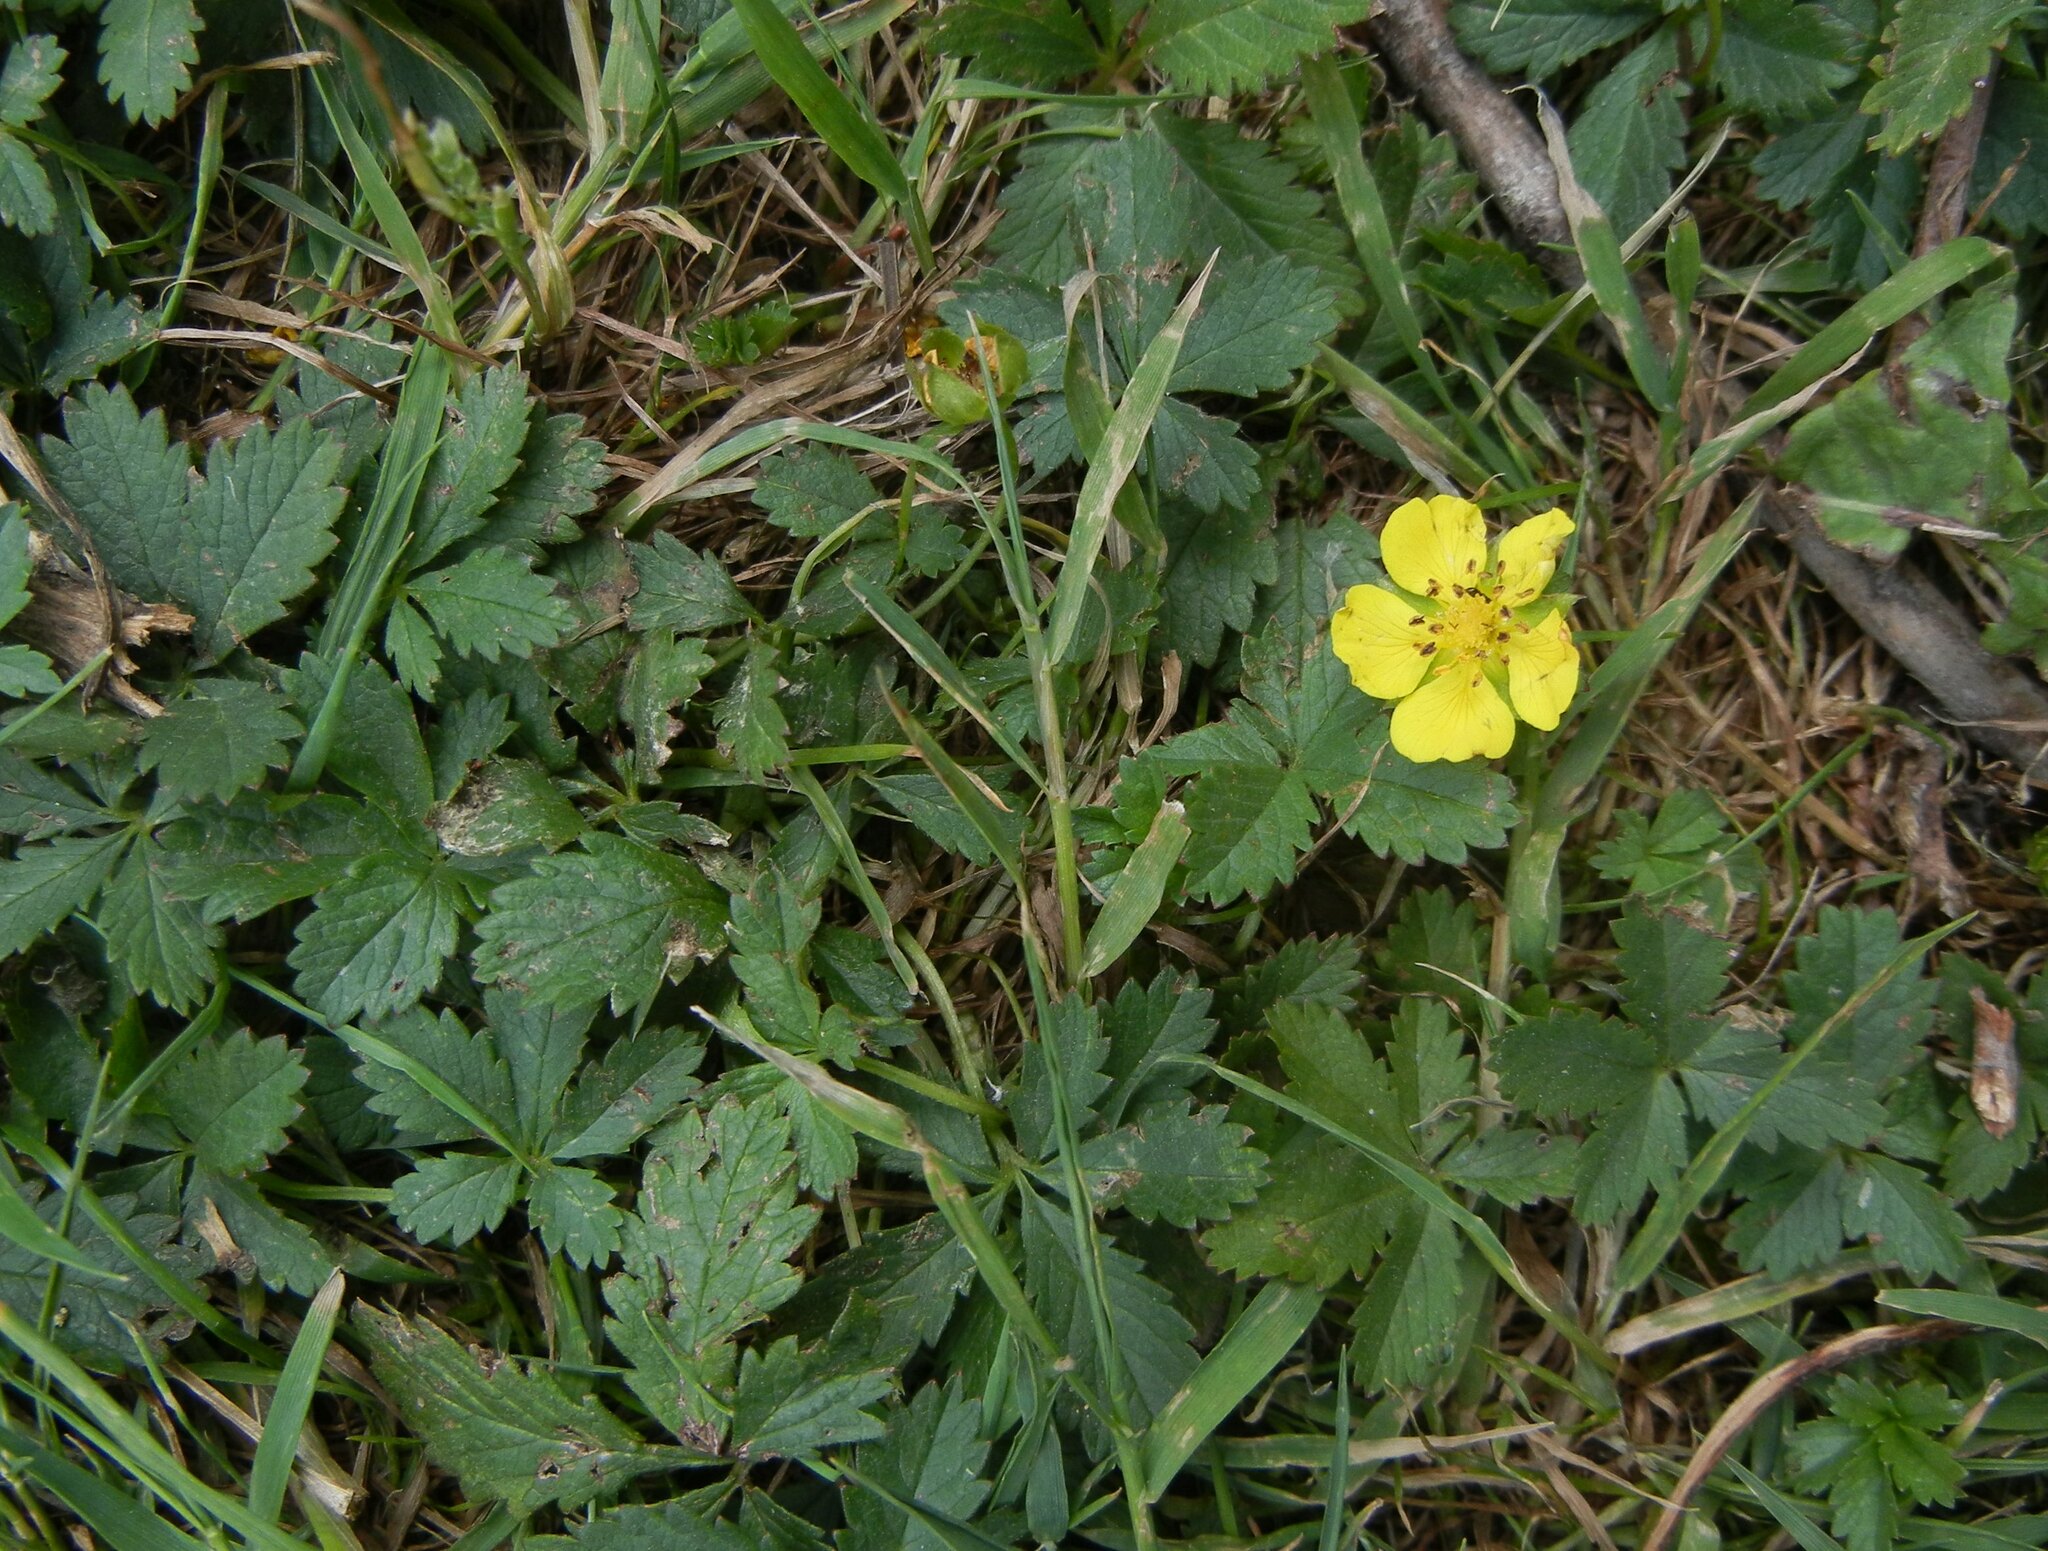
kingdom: Plantae
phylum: Tracheophyta
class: Magnoliopsida
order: Rosales
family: Rosaceae
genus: Potentilla
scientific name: Potentilla reptans
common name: Creeping cinquefoil
